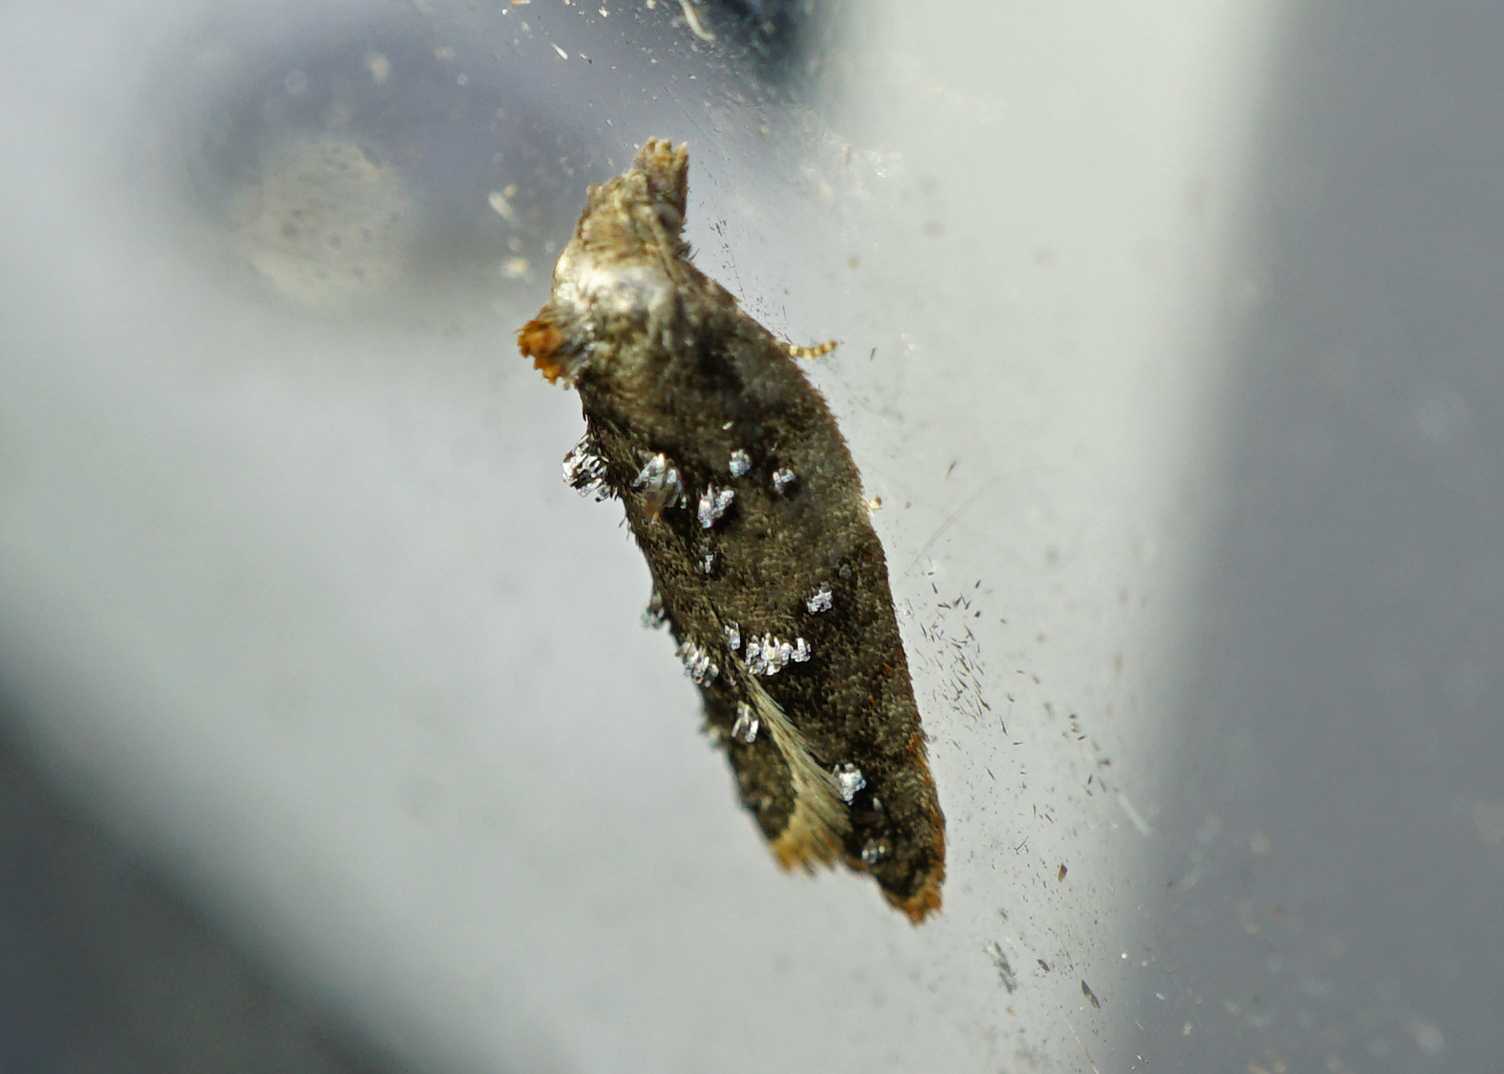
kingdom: Animalia
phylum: Arthropoda
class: Insecta
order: Lepidoptera
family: Tortricidae
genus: Acleris
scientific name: Acleris variegana
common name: Garden rose tortrix
